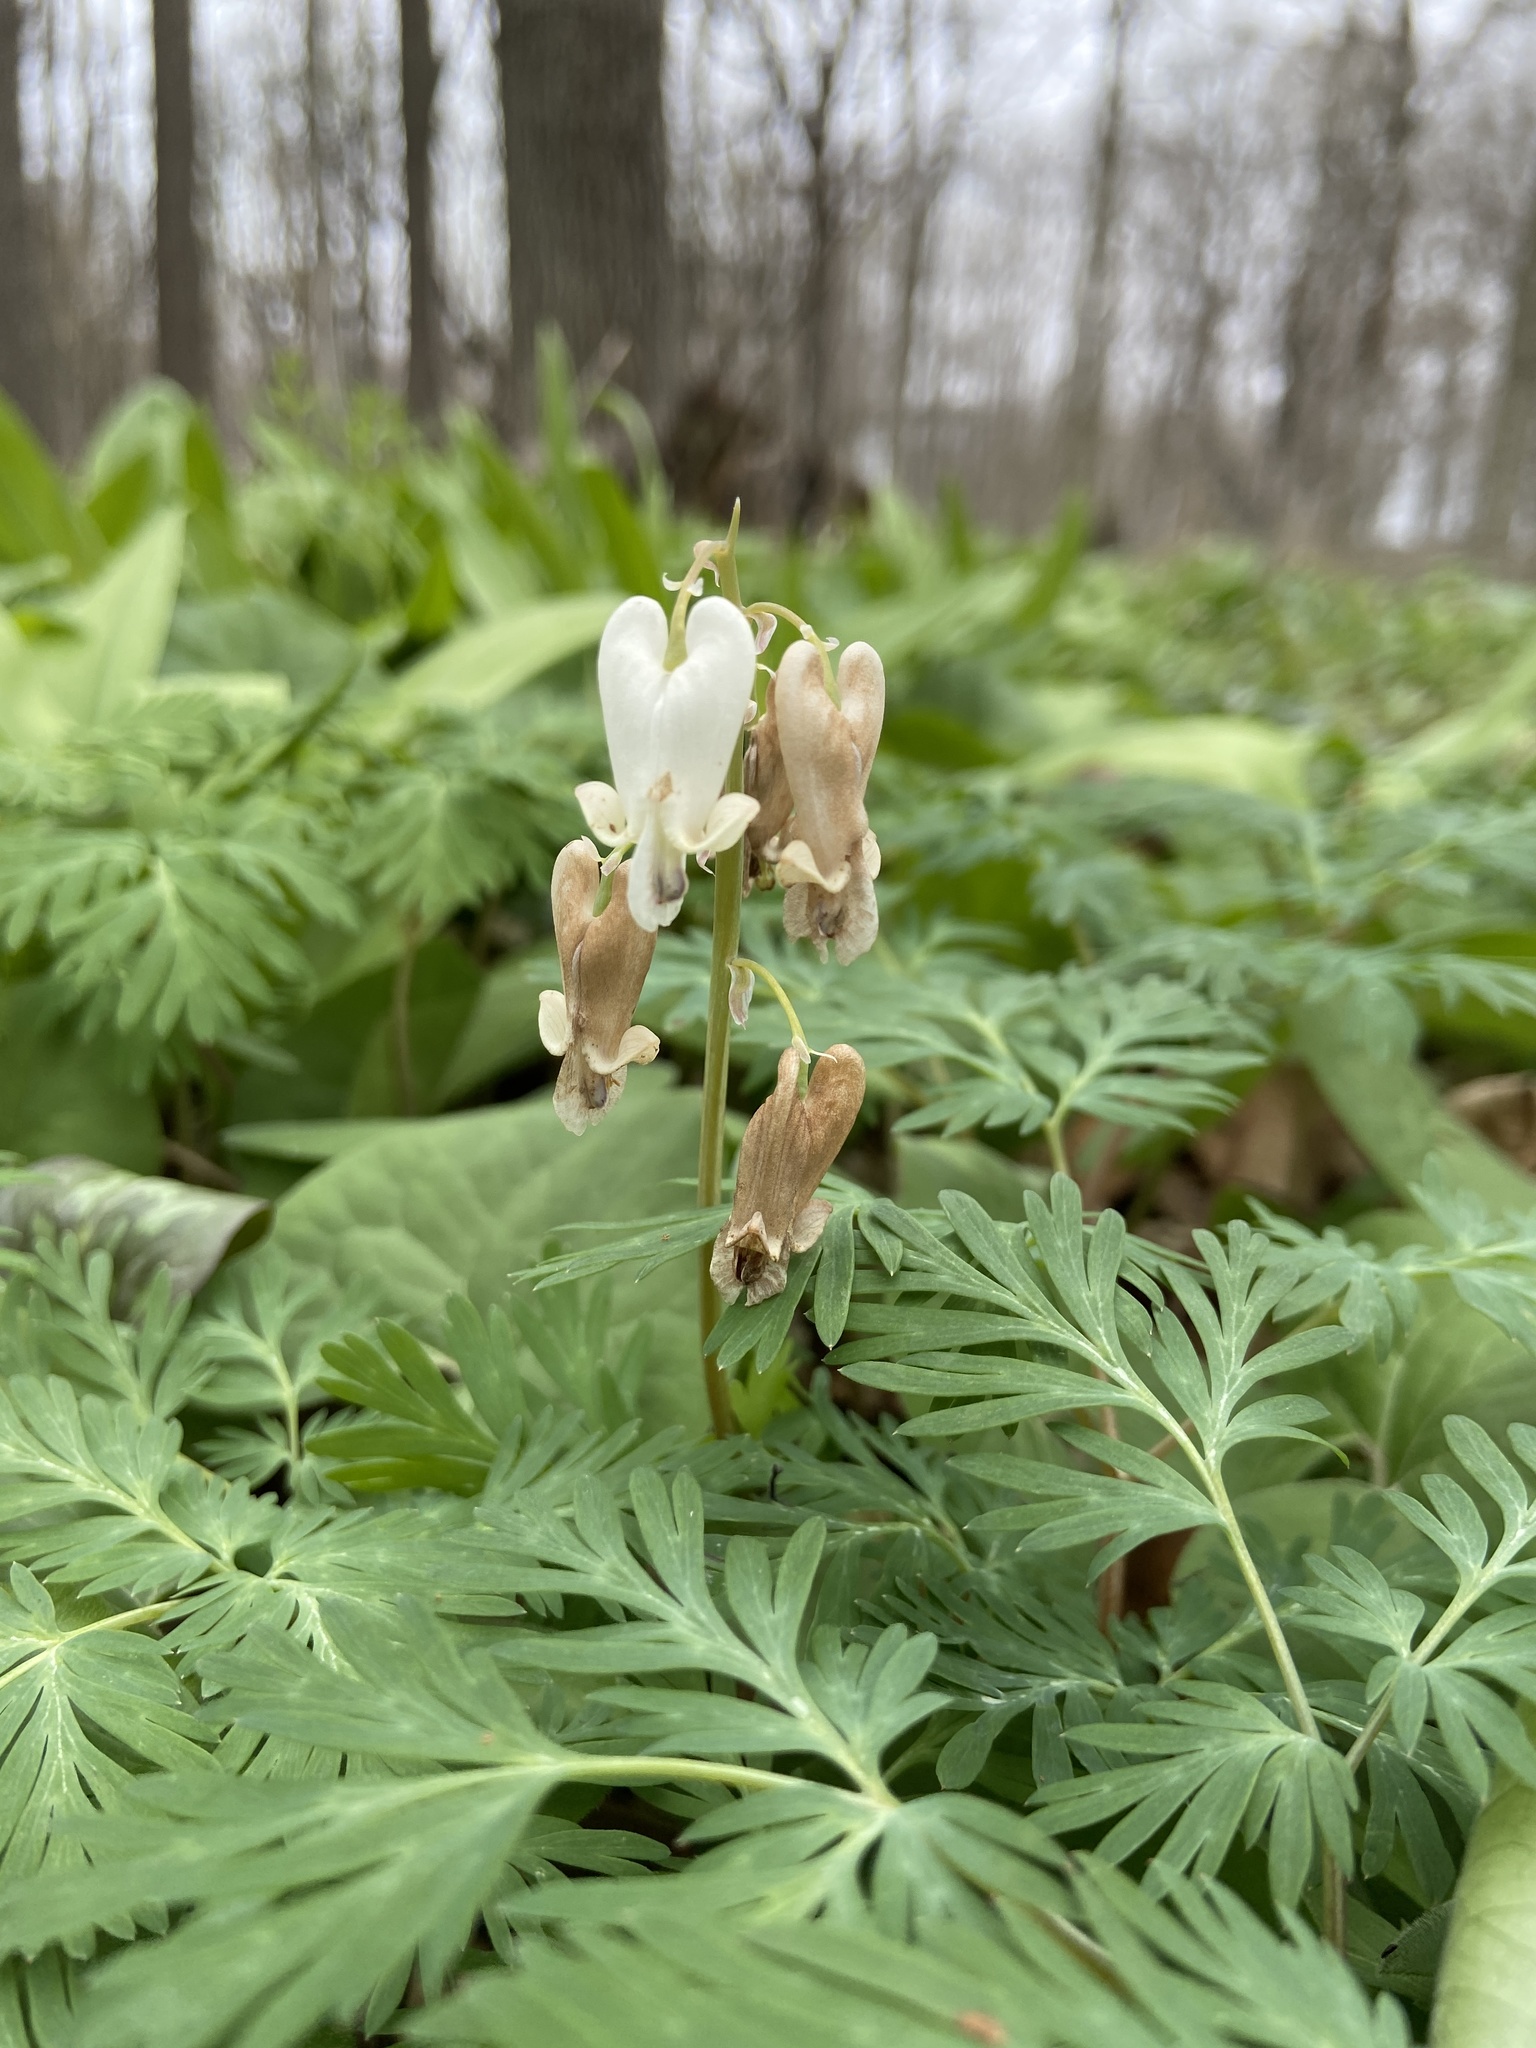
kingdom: Plantae
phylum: Tracheophyta
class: Magnoliopsida
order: Ranunculales
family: Papaveraceae
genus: Dicentra
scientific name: Dicentra canadensis
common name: Squirrel-corn
